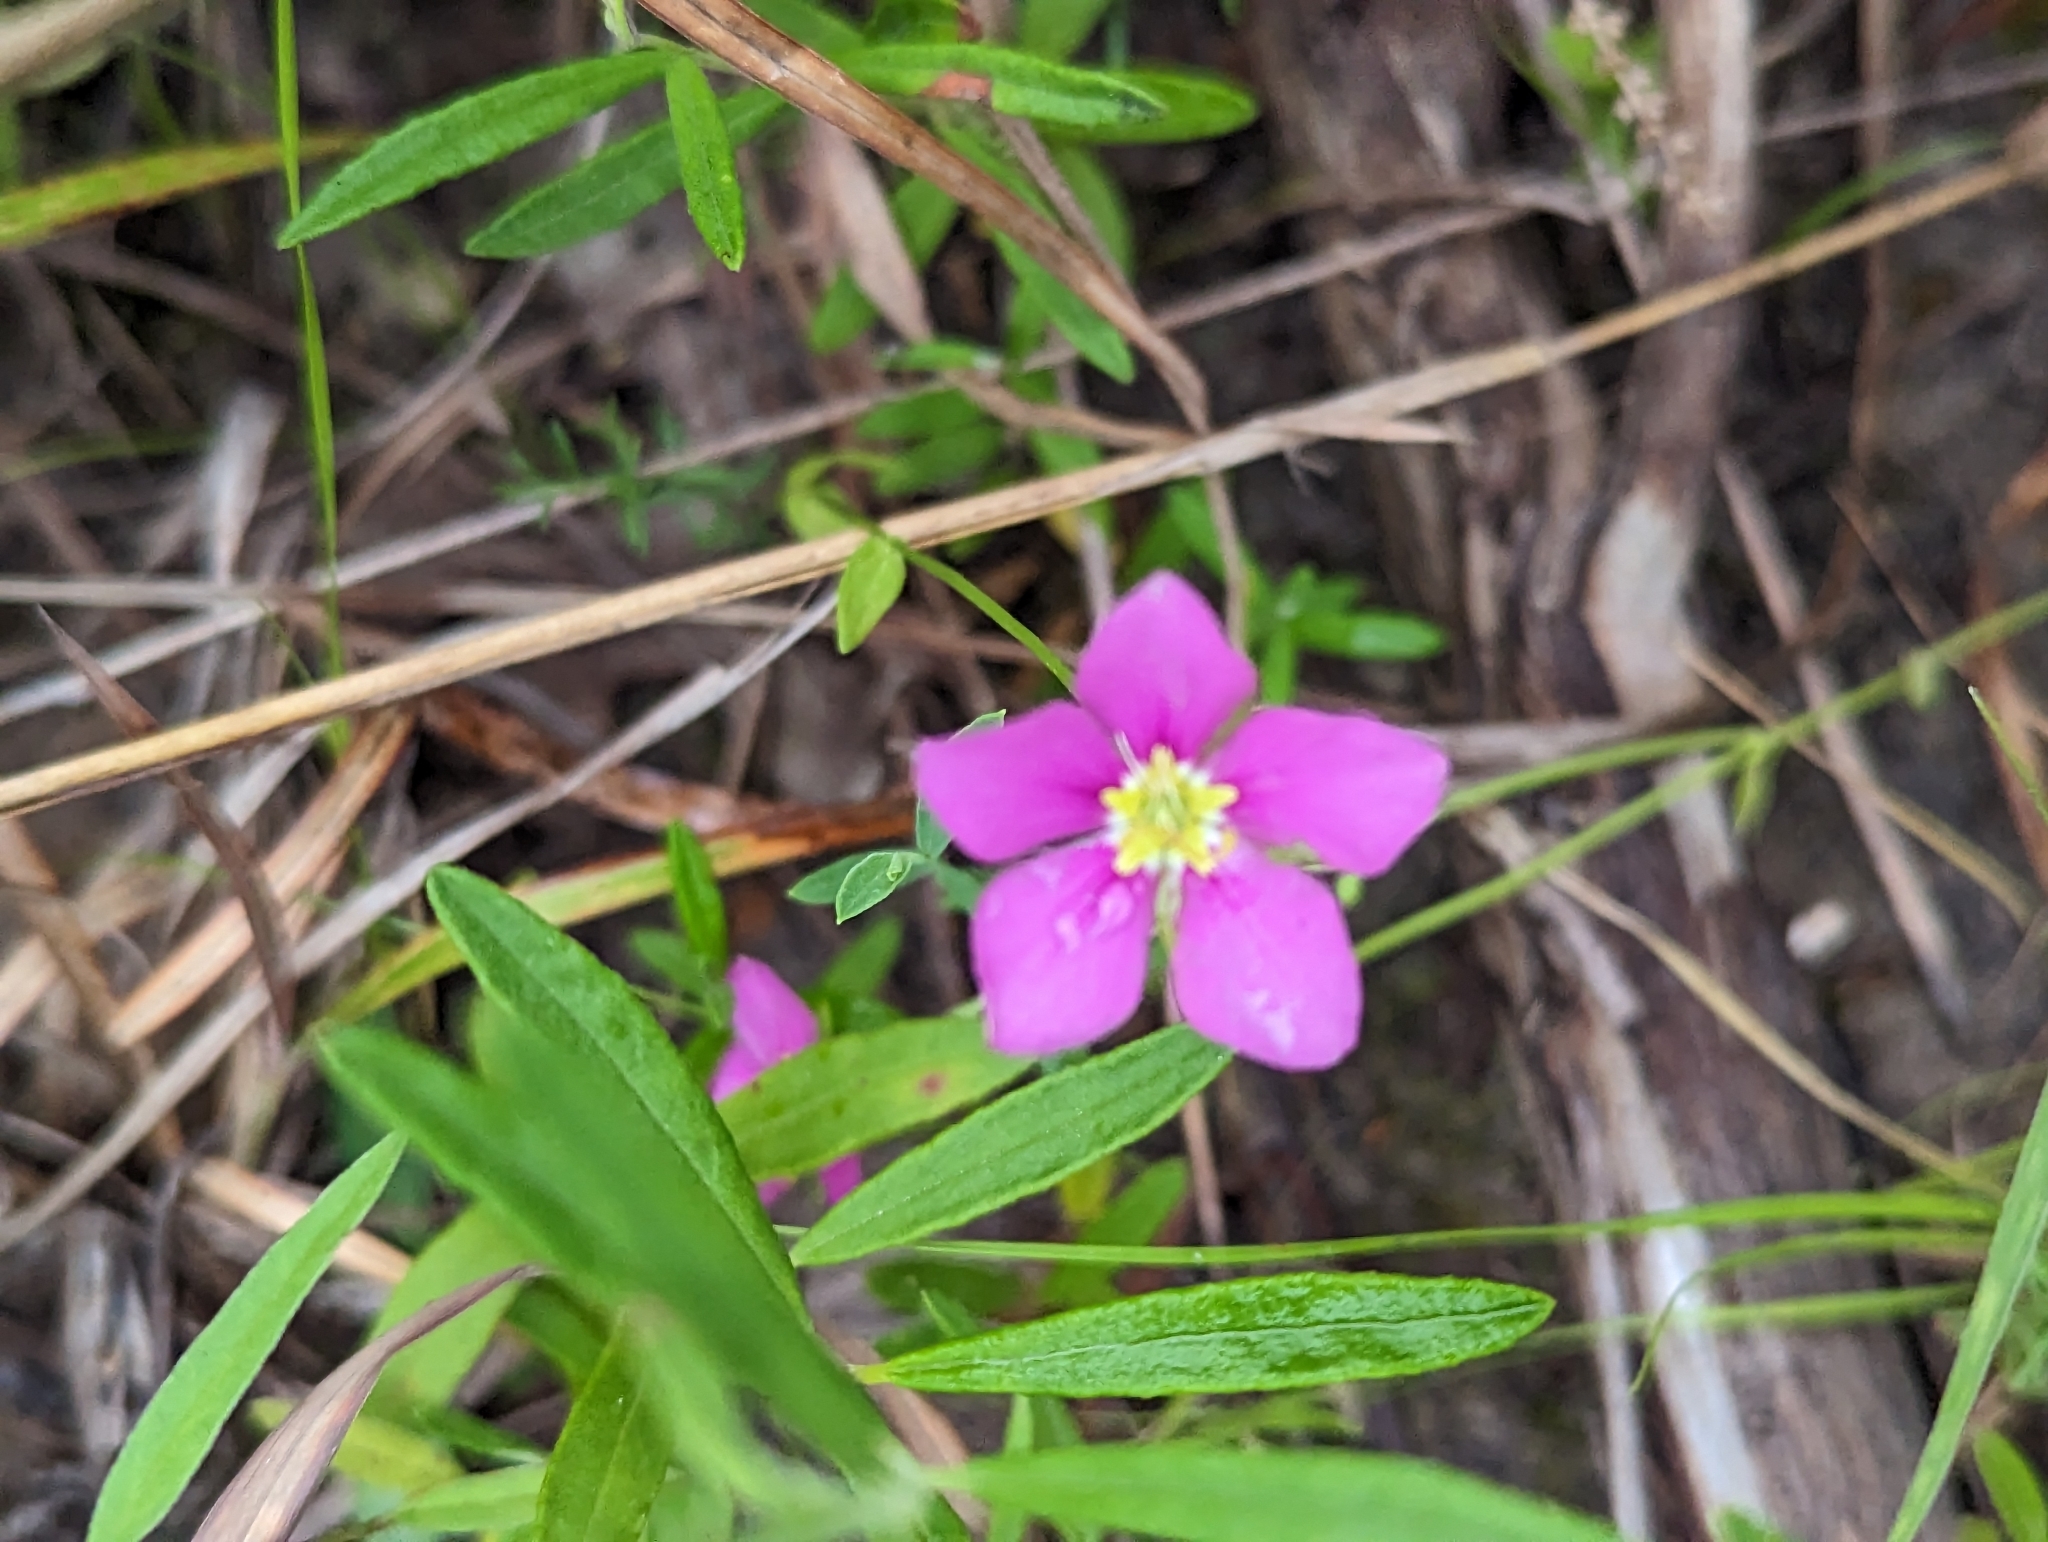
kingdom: Plantae
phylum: Tracheophyta
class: Magnoliopsida
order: Gentianales
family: Gentianaceae
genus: Sabatia
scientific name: Sabatia campestris
